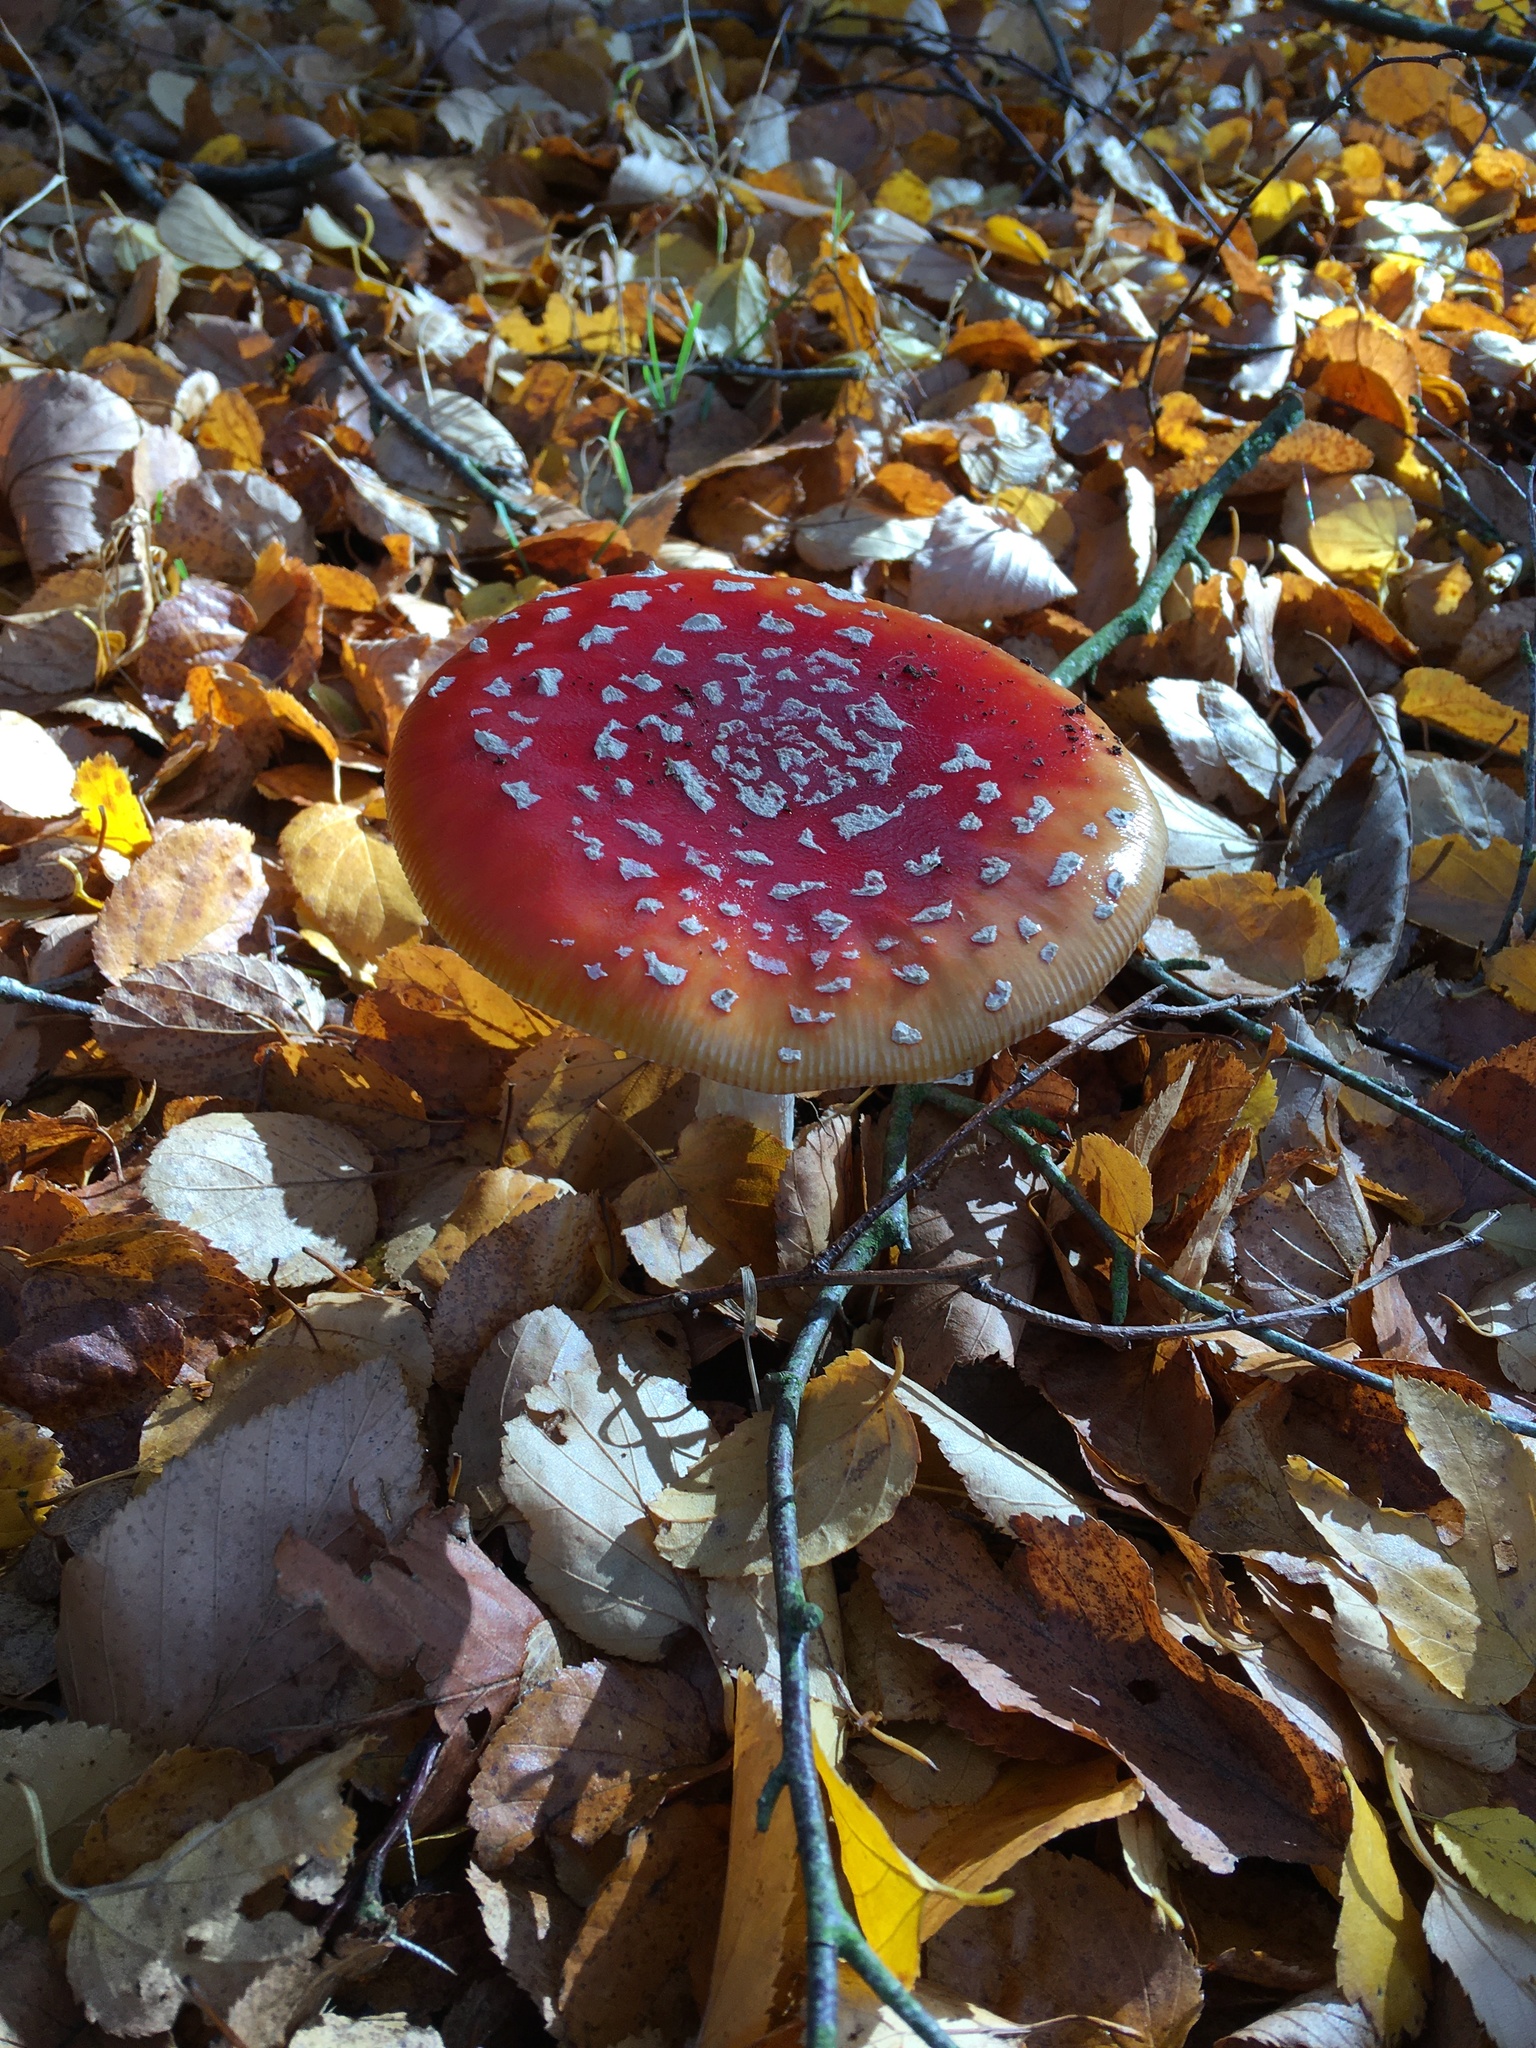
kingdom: Fungi
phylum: Basidiomycota
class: Agaricomycetes
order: Agaricales
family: Amanitaceae
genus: Amanita
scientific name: Amanita muscaria
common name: Fly agaric
